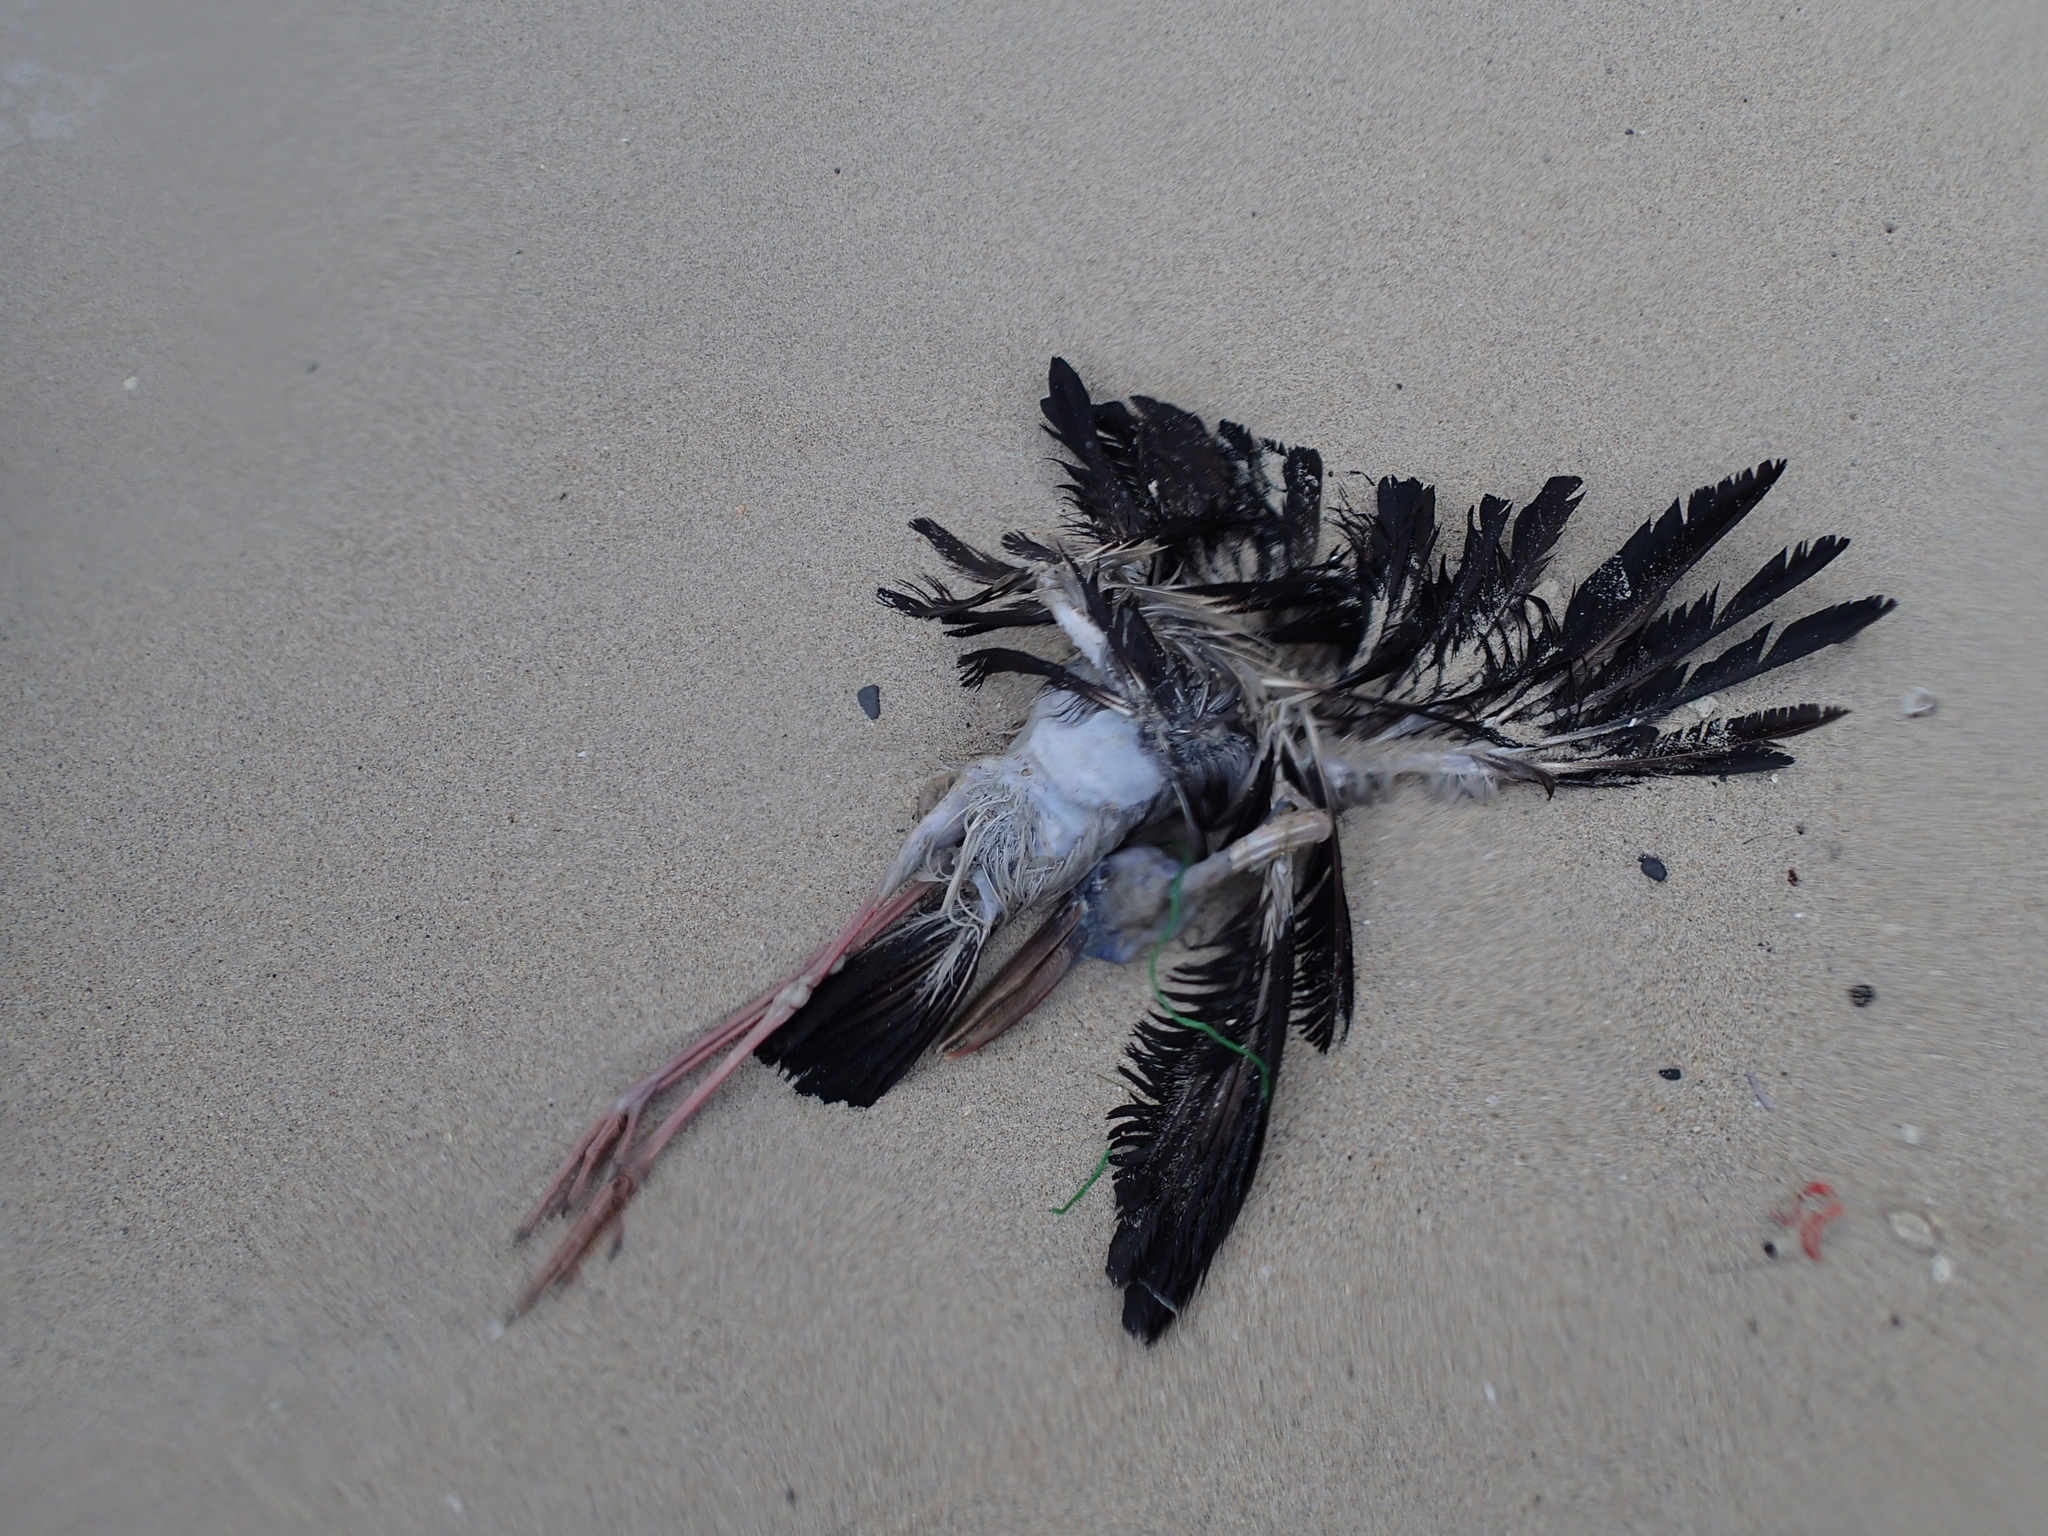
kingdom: Animalia
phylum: Chordata
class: Aves
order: Ciconiiformes
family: Ciconiidae
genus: Anastomus
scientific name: Anastomus oscitans
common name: Asian openbill
